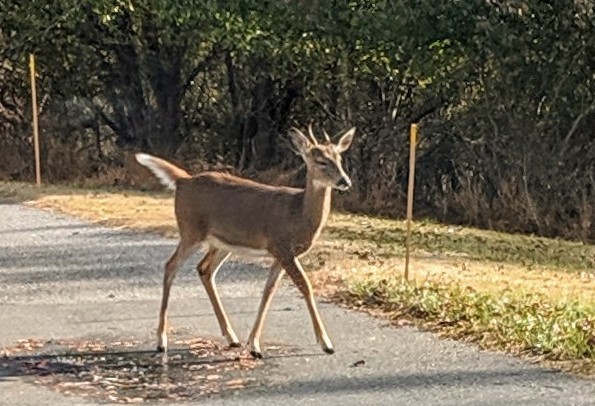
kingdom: Animalia
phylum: Chordata
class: Mammalia
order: Artiodactyla
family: Cervidae
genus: Odocoileus
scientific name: Odocoileus virginianus
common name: White-tailed deer
